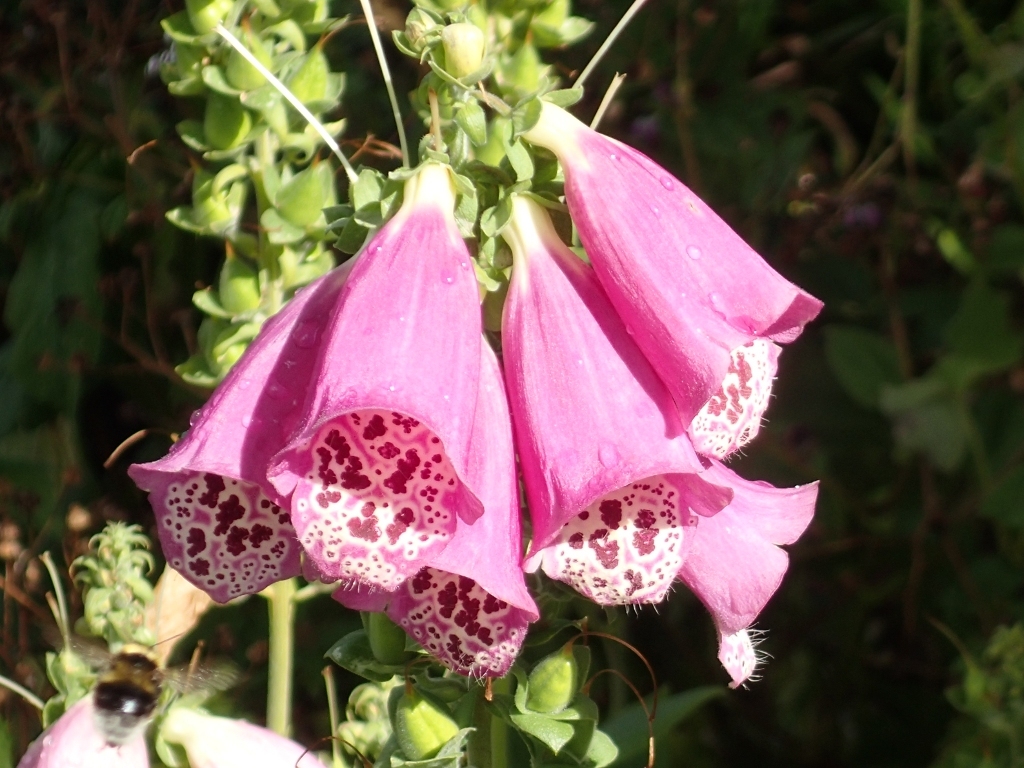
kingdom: Plantae
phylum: Tracheophyta
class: Magnoliopsida
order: Lamiales
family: Plantaginaceae
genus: Digitalis
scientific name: Digitalis purpurea
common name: Foxglove
